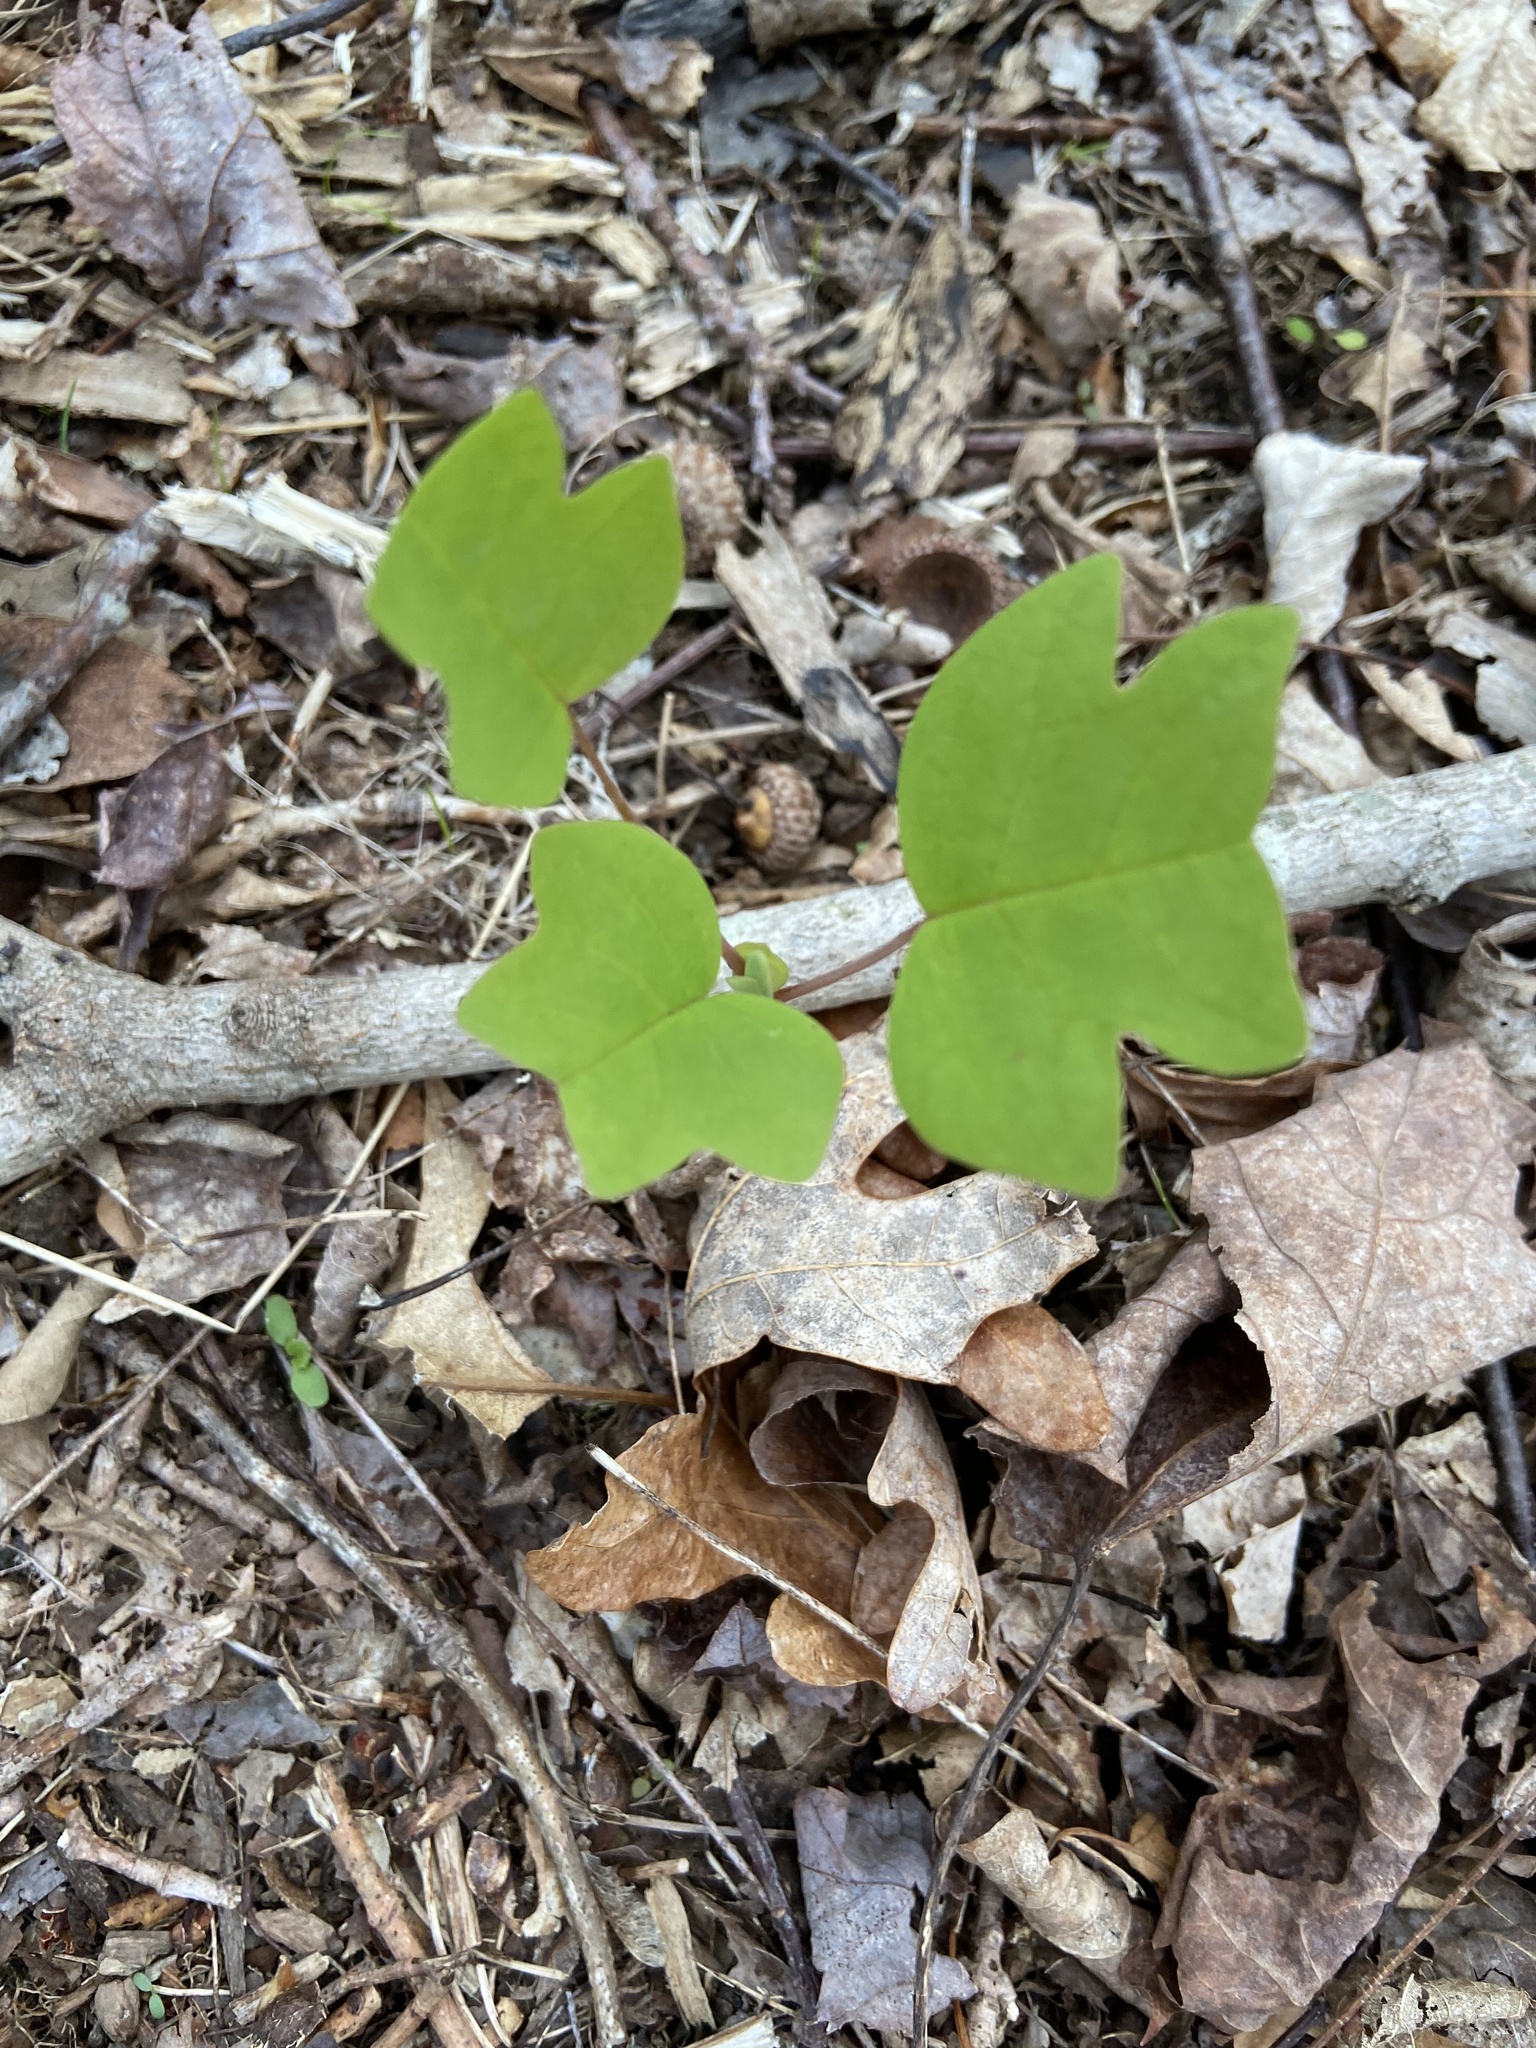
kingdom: Plantae
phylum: Tracheophyta
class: Magnoliopsida
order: Magnoliales
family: Magnoliaceae
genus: Liriodendron
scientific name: Liriodendron tulipifera
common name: Tulip tree
